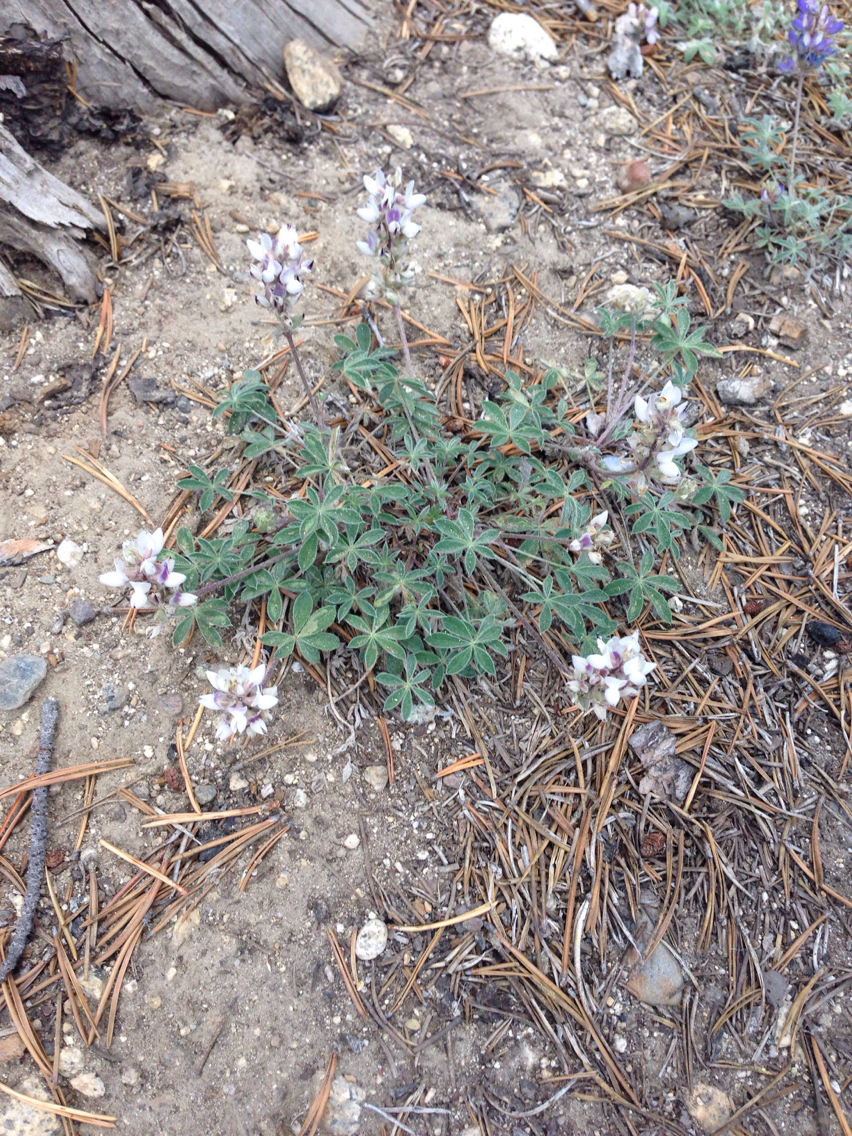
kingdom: Plantae
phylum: Tracheophyta
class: Magnoliopsida
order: Fabales
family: Fabaceae
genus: Lupinus
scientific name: Lupinus sellulus
